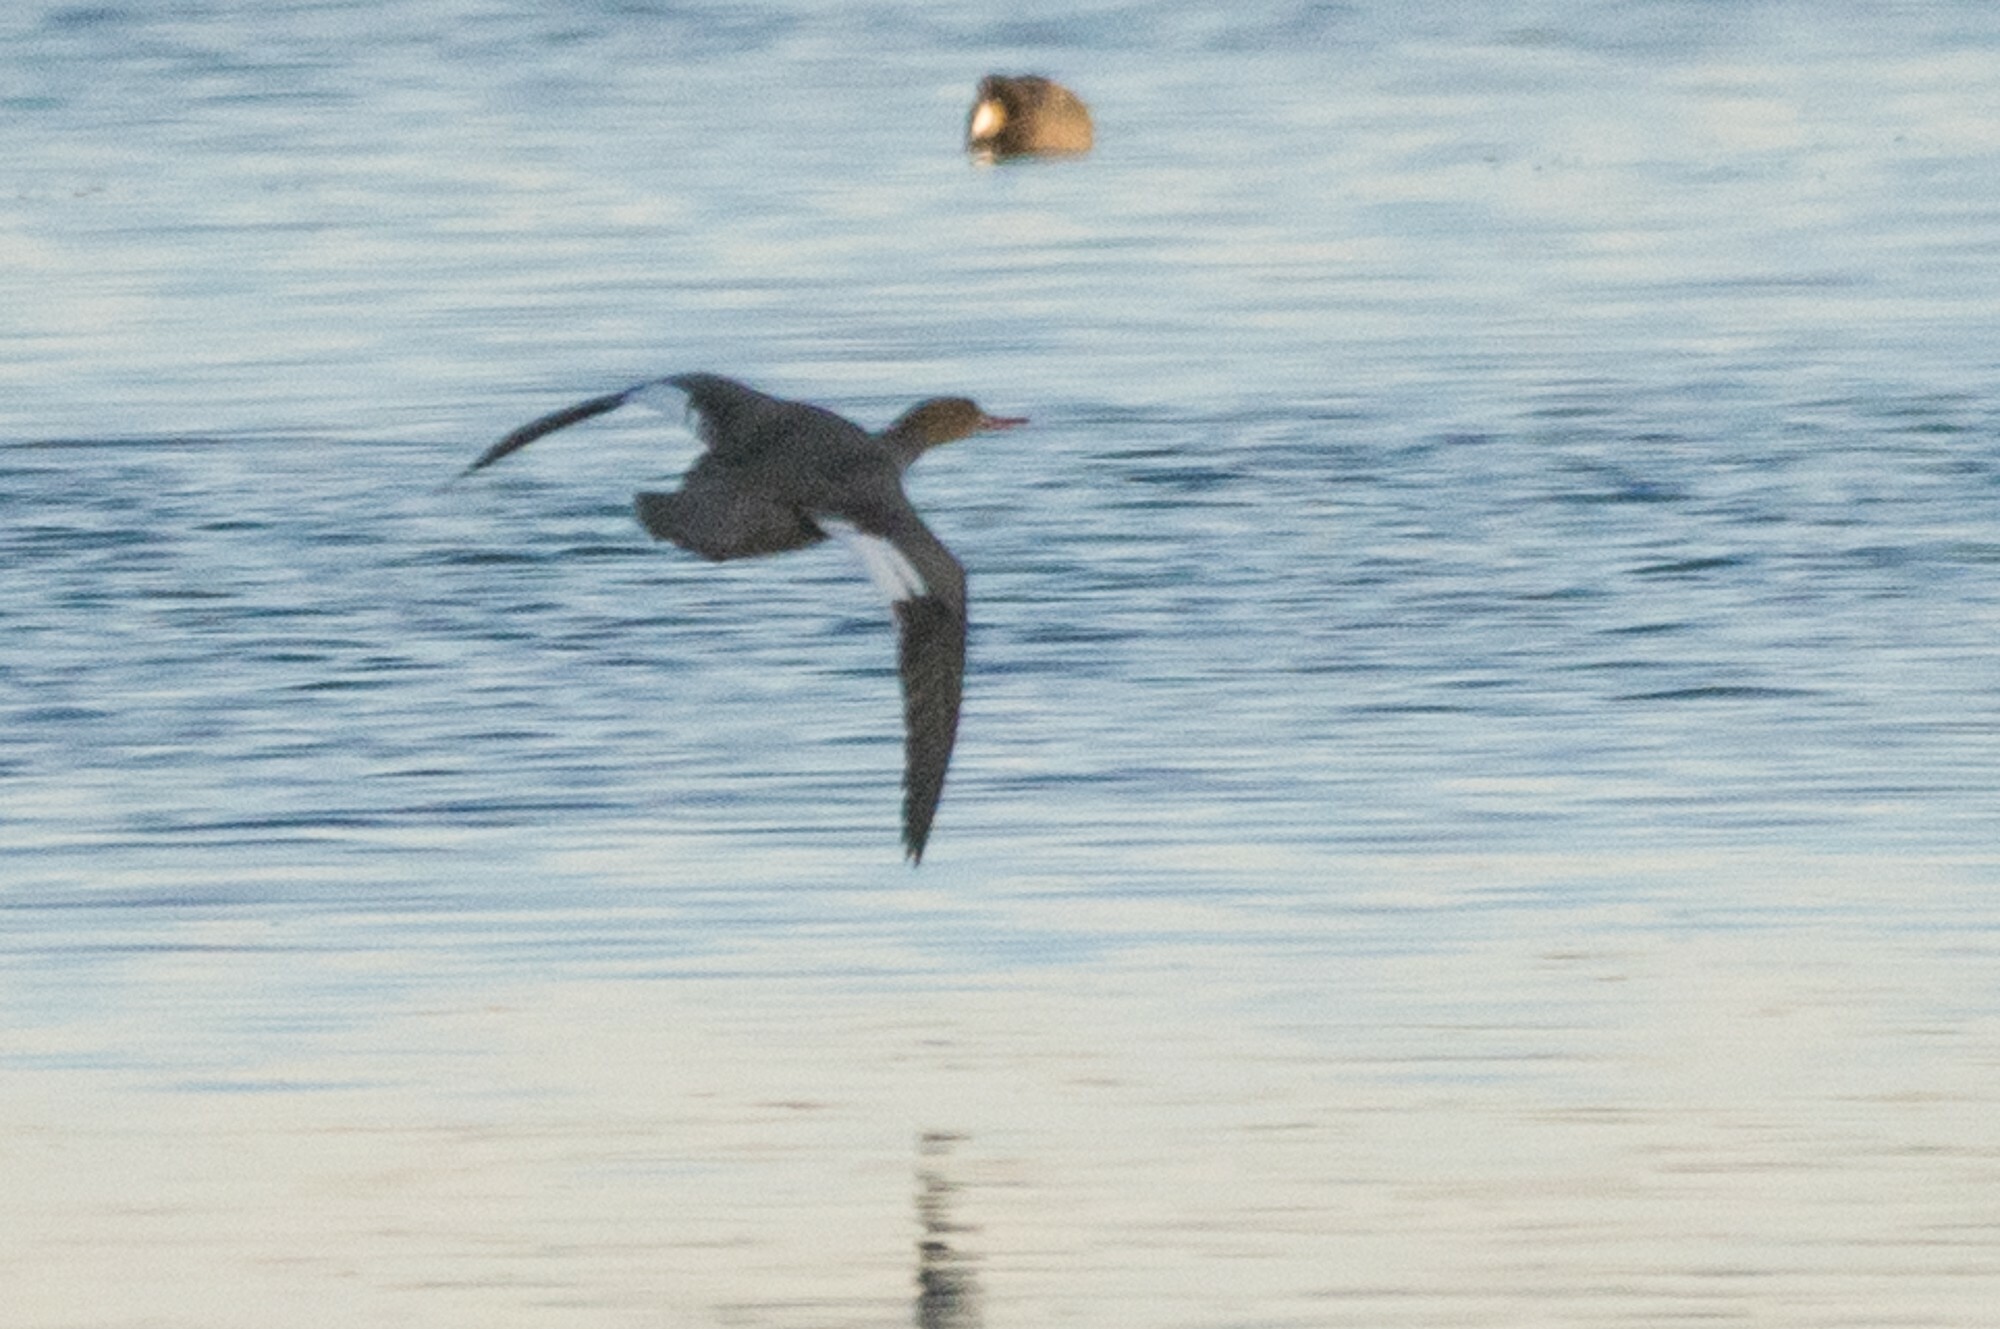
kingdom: Animalia
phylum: Chordata
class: Aves
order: Anseriformes
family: Anatidae
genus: Mergus
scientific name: Mergus serrator
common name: Red-breasted merganser
